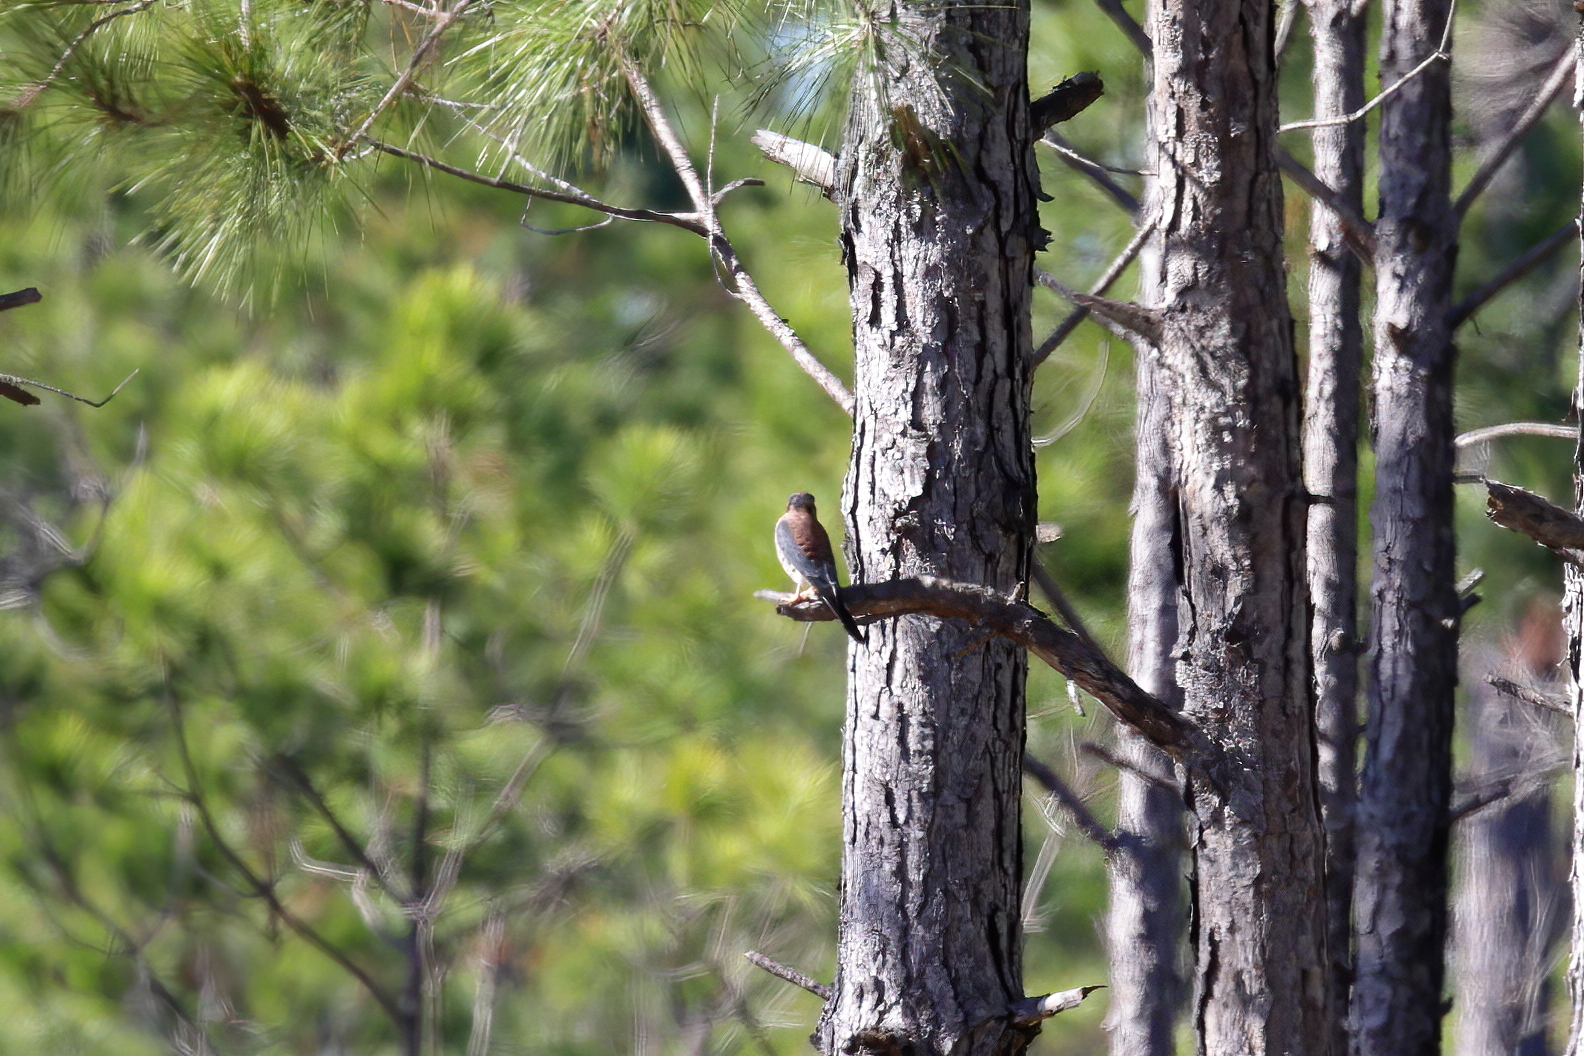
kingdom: Animalia
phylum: Chordata
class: Aves
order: Falconiformes
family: Falconidae
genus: Falco
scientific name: Falco sparverius
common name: American kestrel
